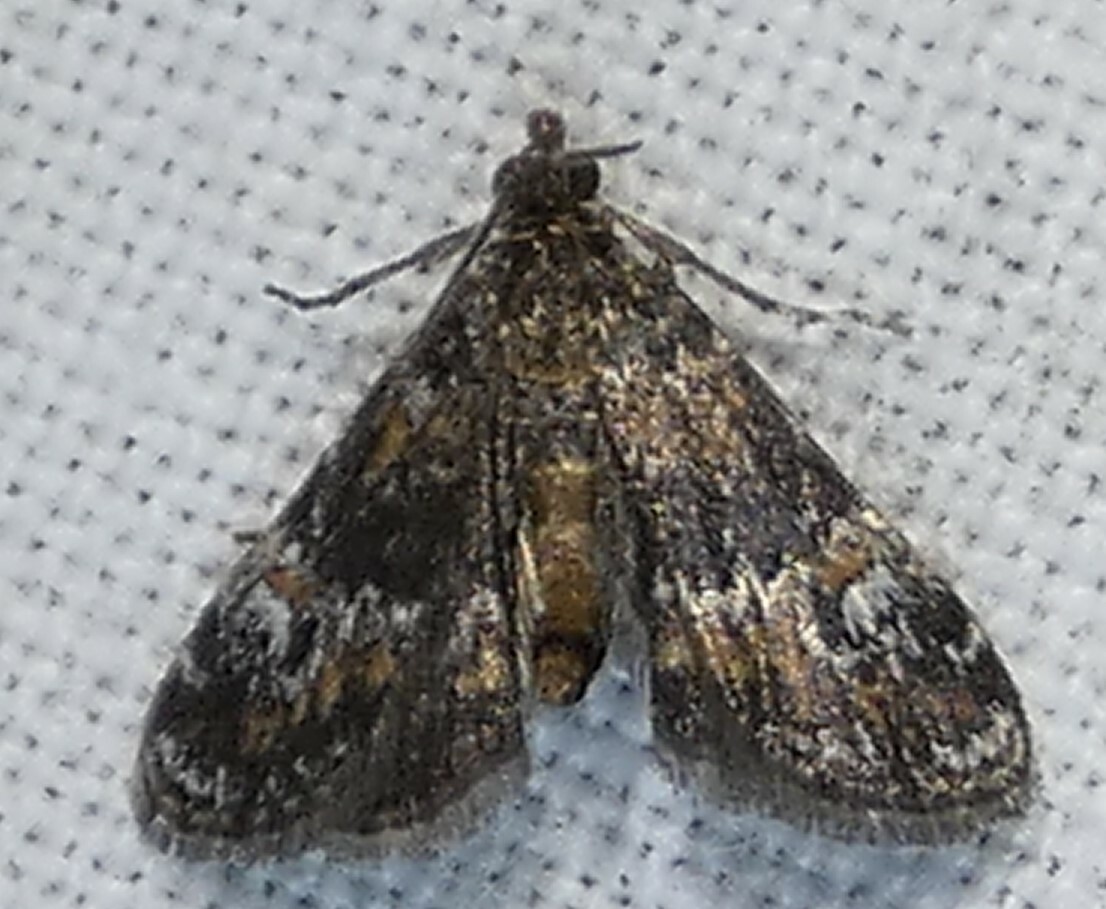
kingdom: Animalia
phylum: Arthropoda
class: Insecta
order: Lepidoptera
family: Crambidae
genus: Elophila
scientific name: Elophila obliteralis
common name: Waterlily leafcutter moth
